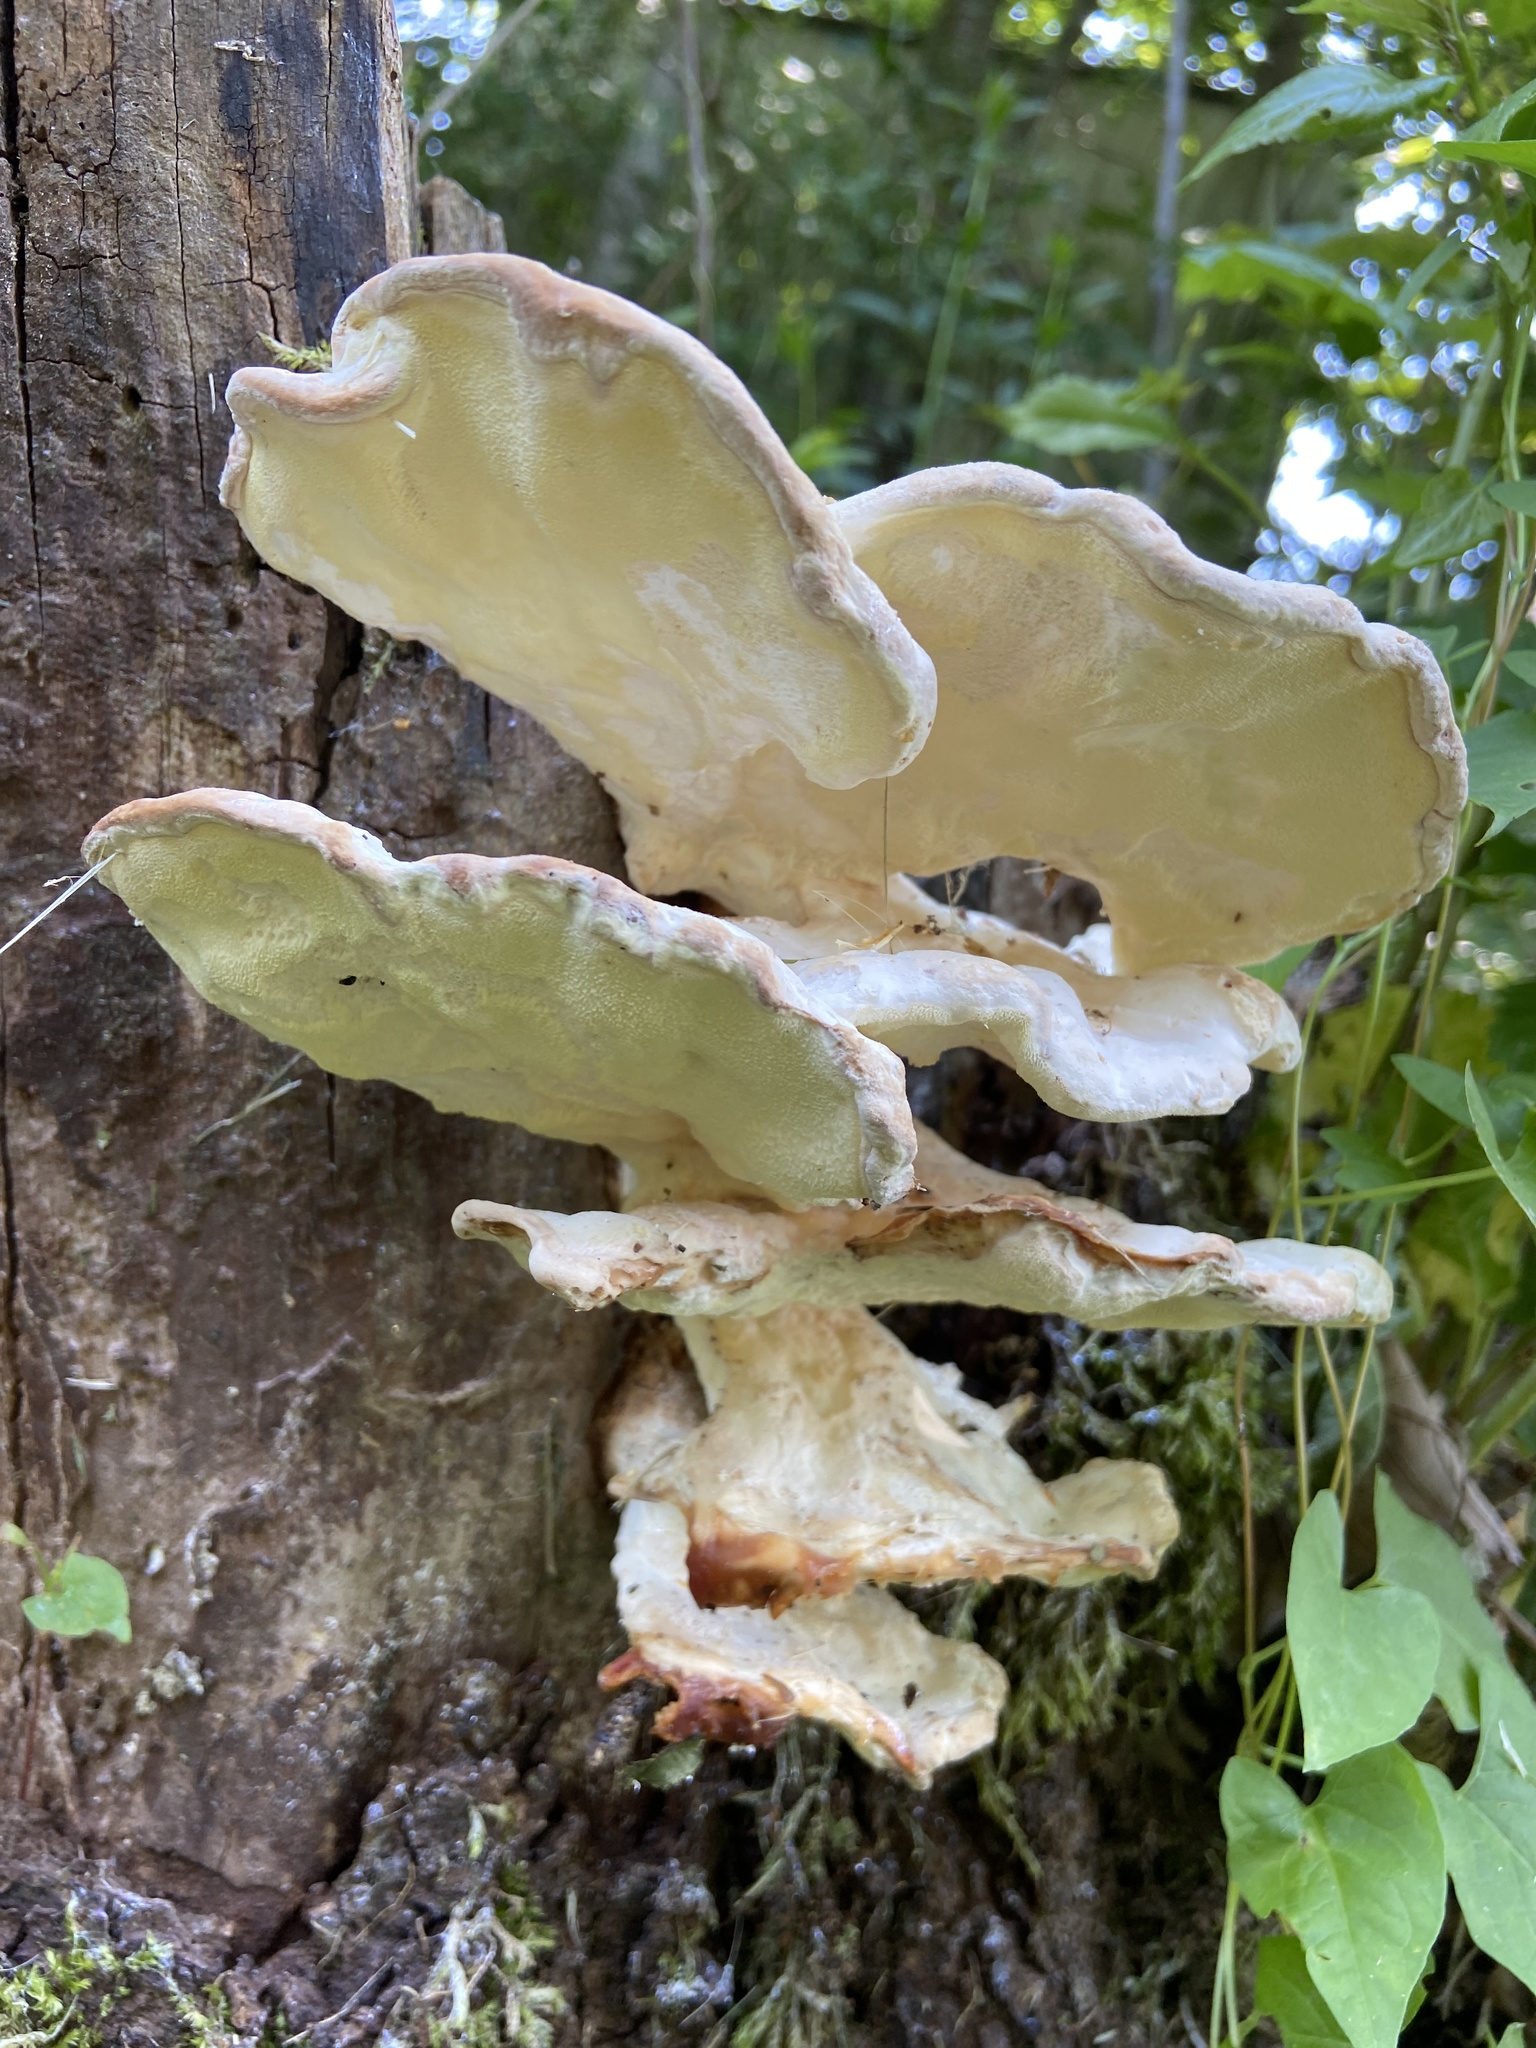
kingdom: Fungi
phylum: Basidiomycota
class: Agaricomycetes
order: Polyporales
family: Laetiporaceae
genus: Laetiporus
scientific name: Laetiporus sulphureus
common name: Chicken of the woods
